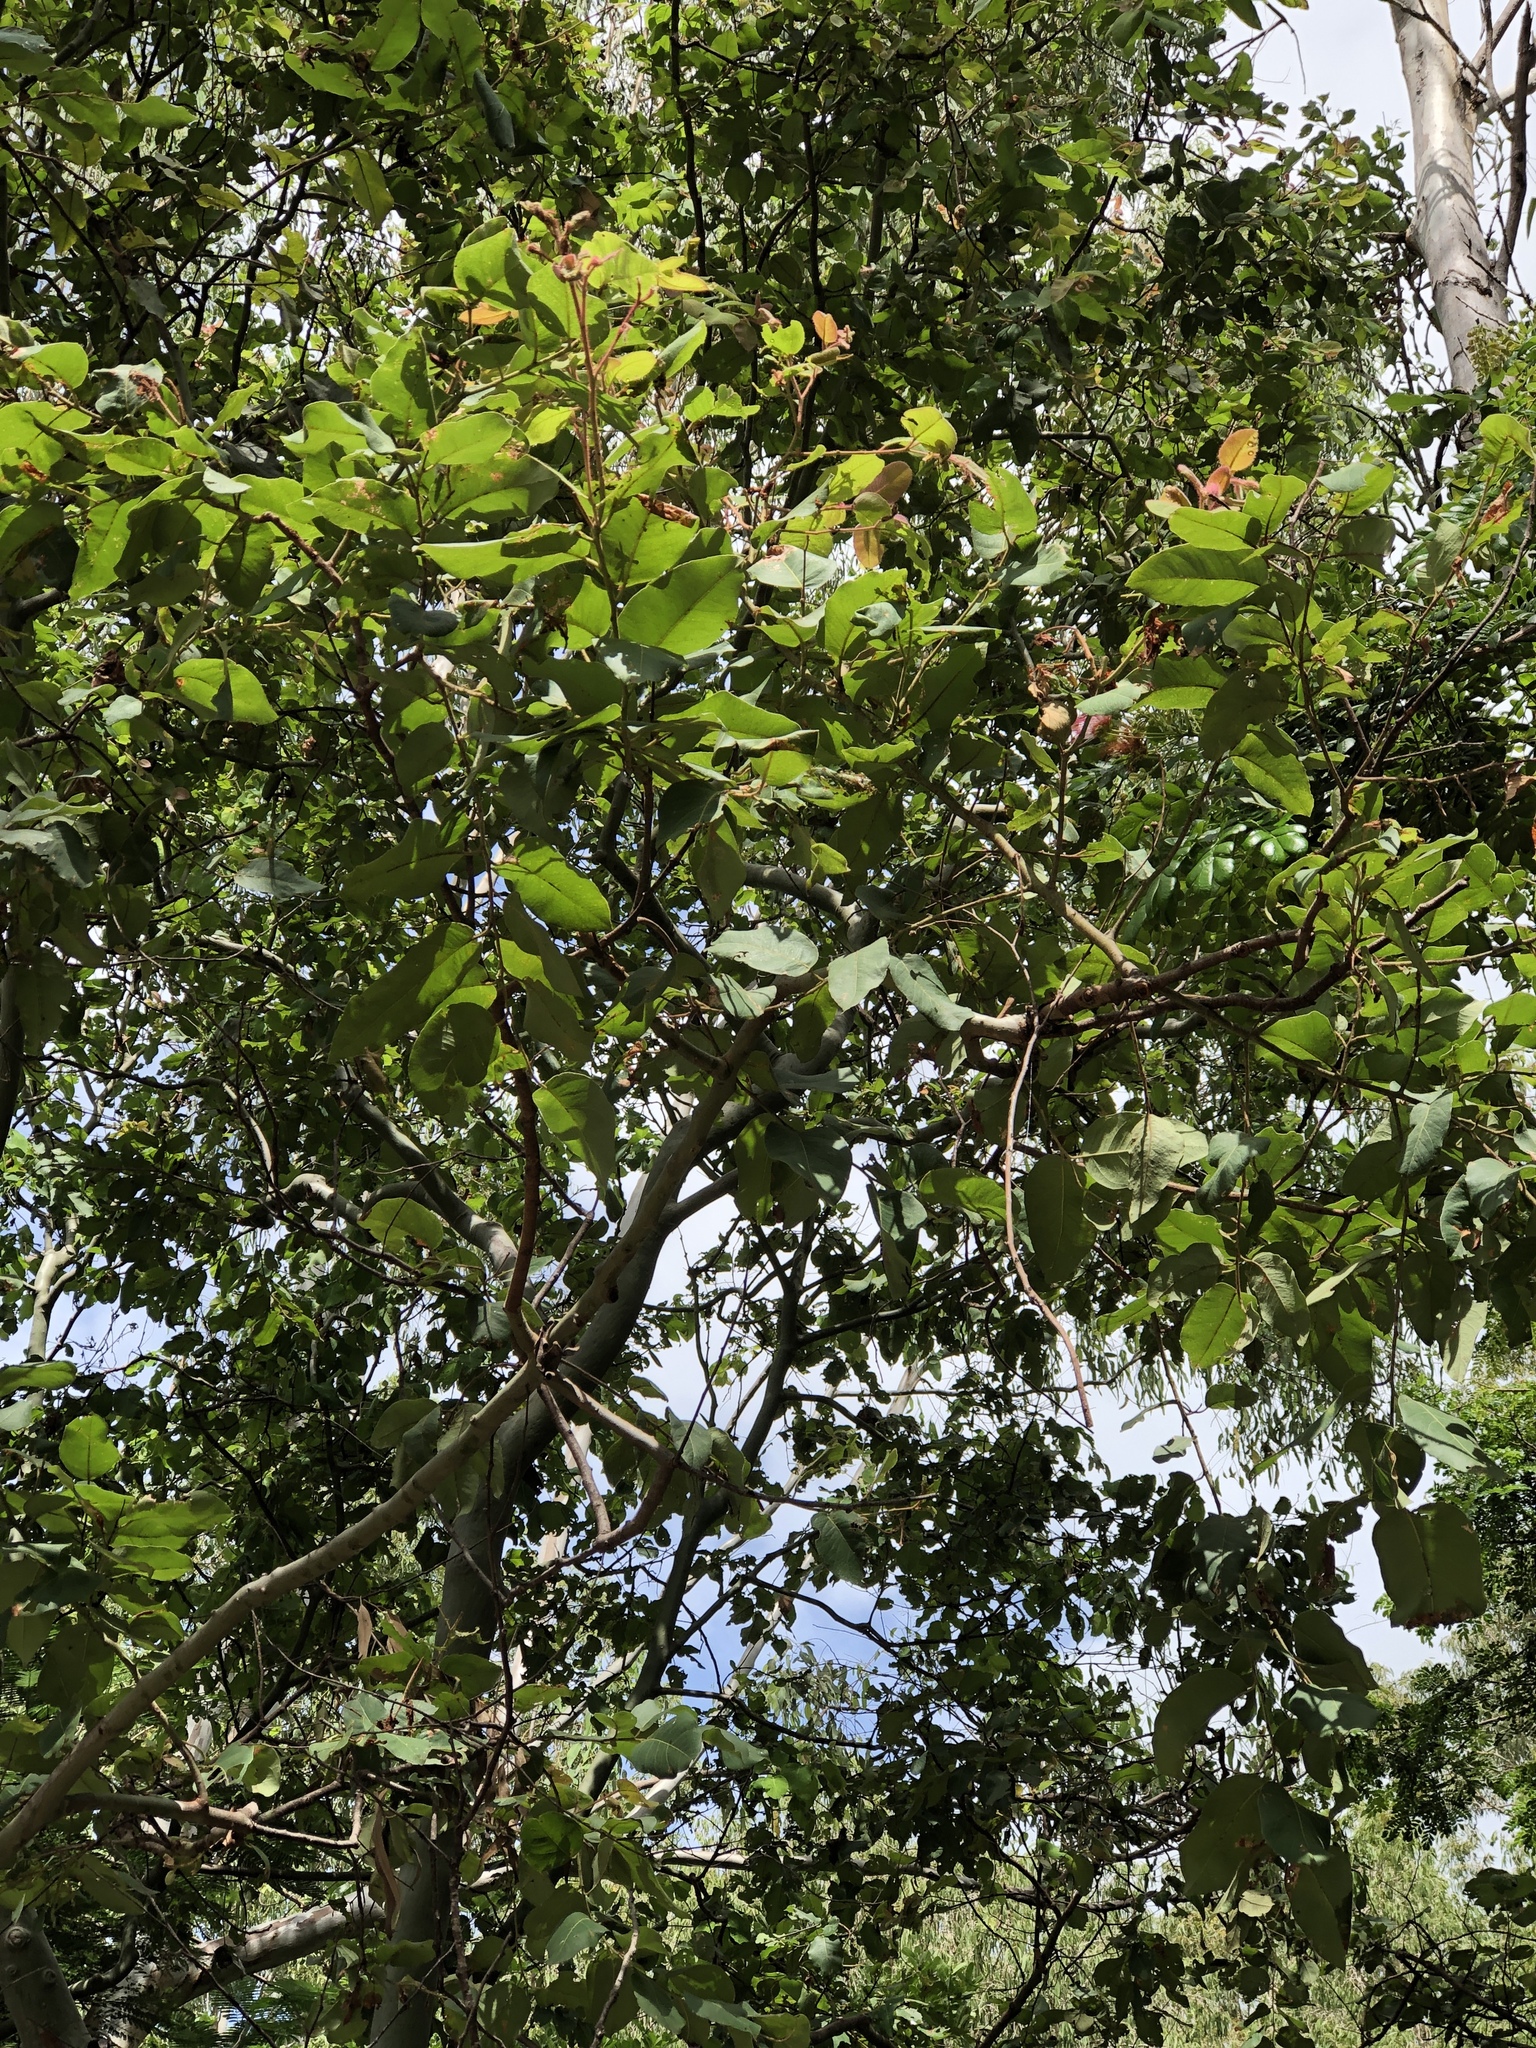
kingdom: Plantae
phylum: Tracheophyta
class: Magnoliopsida
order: Myrtales
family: Myrtaceae
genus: Corymbia
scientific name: Corymbia torelliana
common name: Cadaghi
